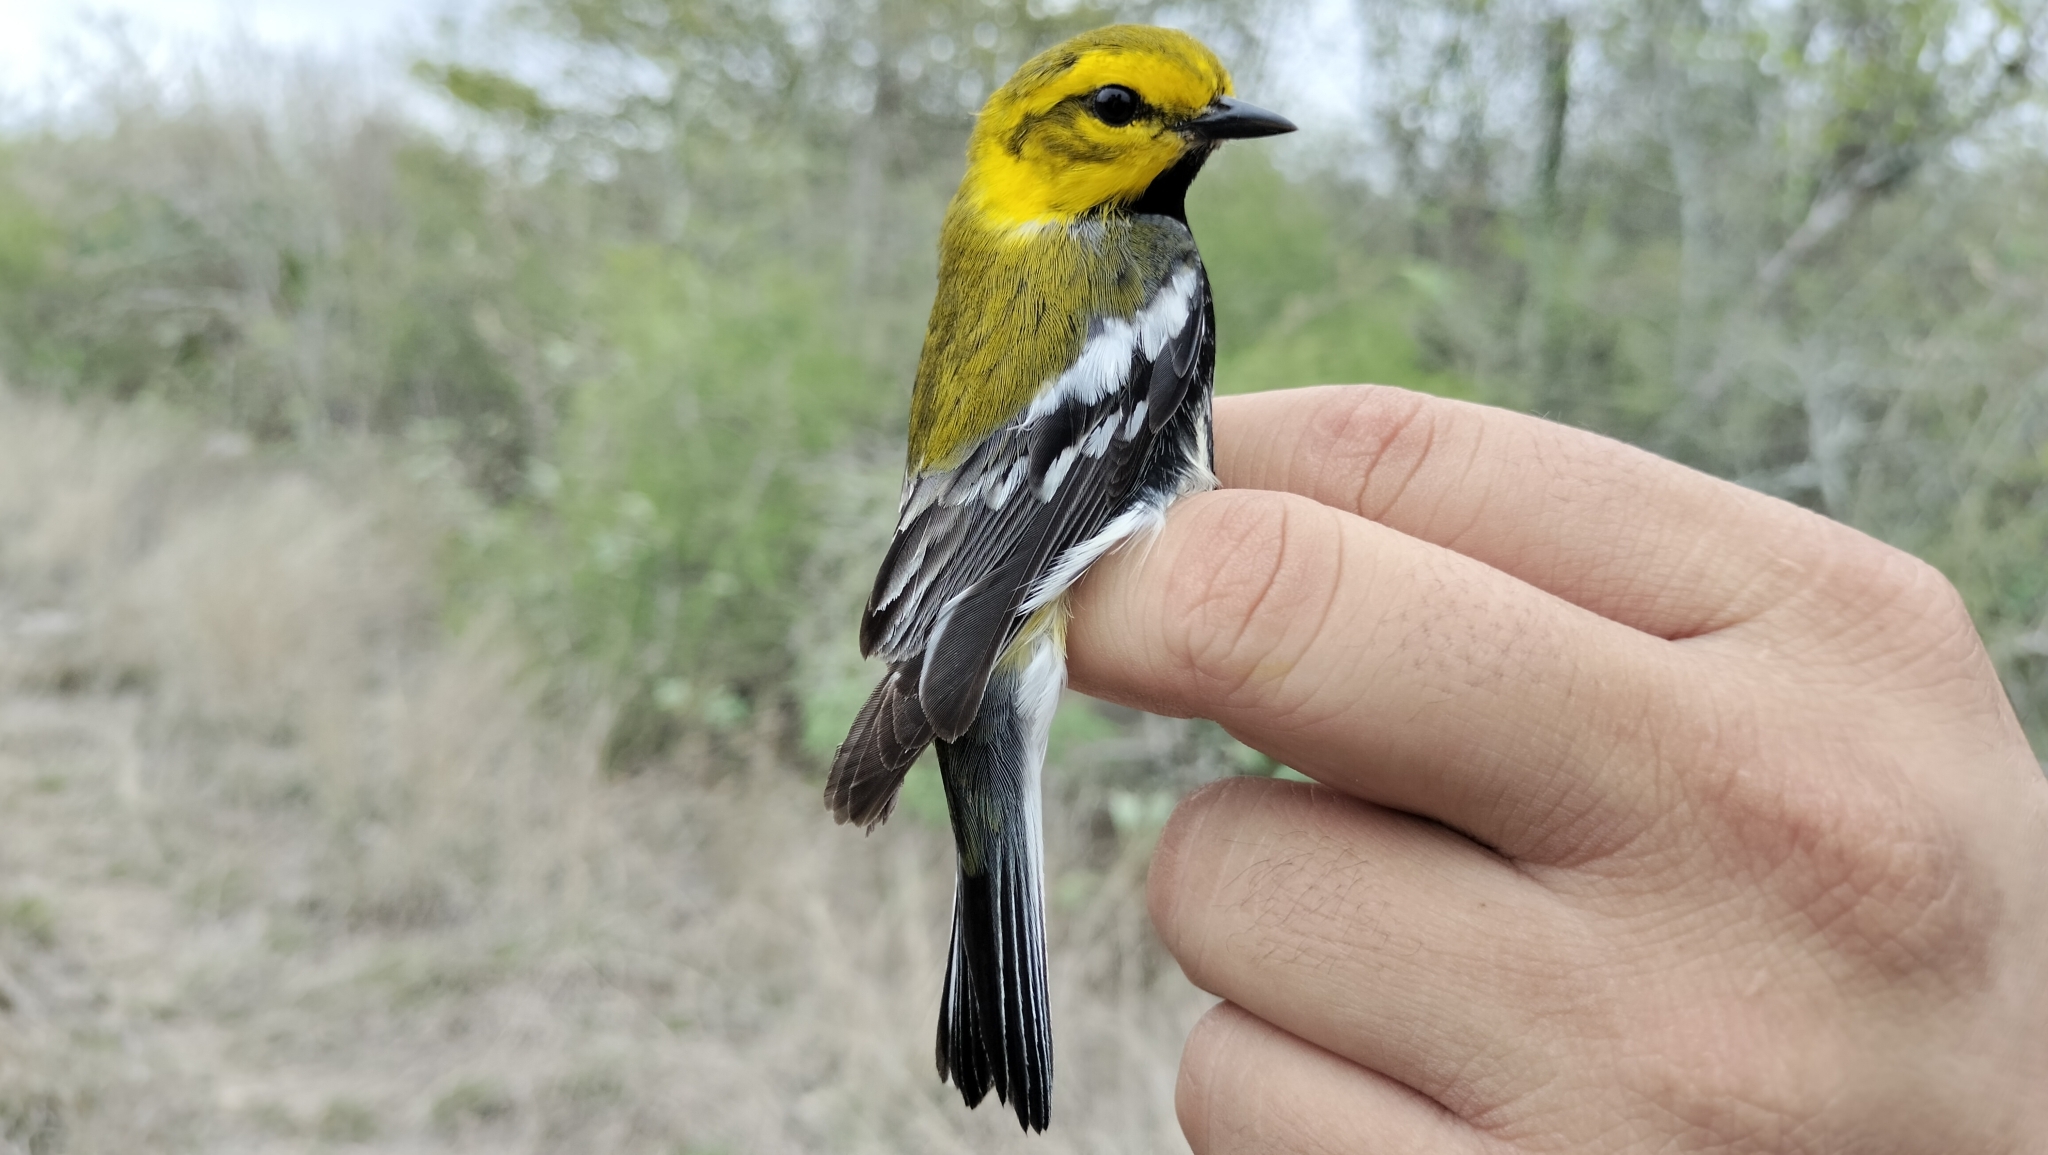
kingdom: Animalia
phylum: Chordata
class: Aves
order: Passeriformes
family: Parulidae
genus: Setophaga
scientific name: Setophaga virens
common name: Black-throated green warbler
